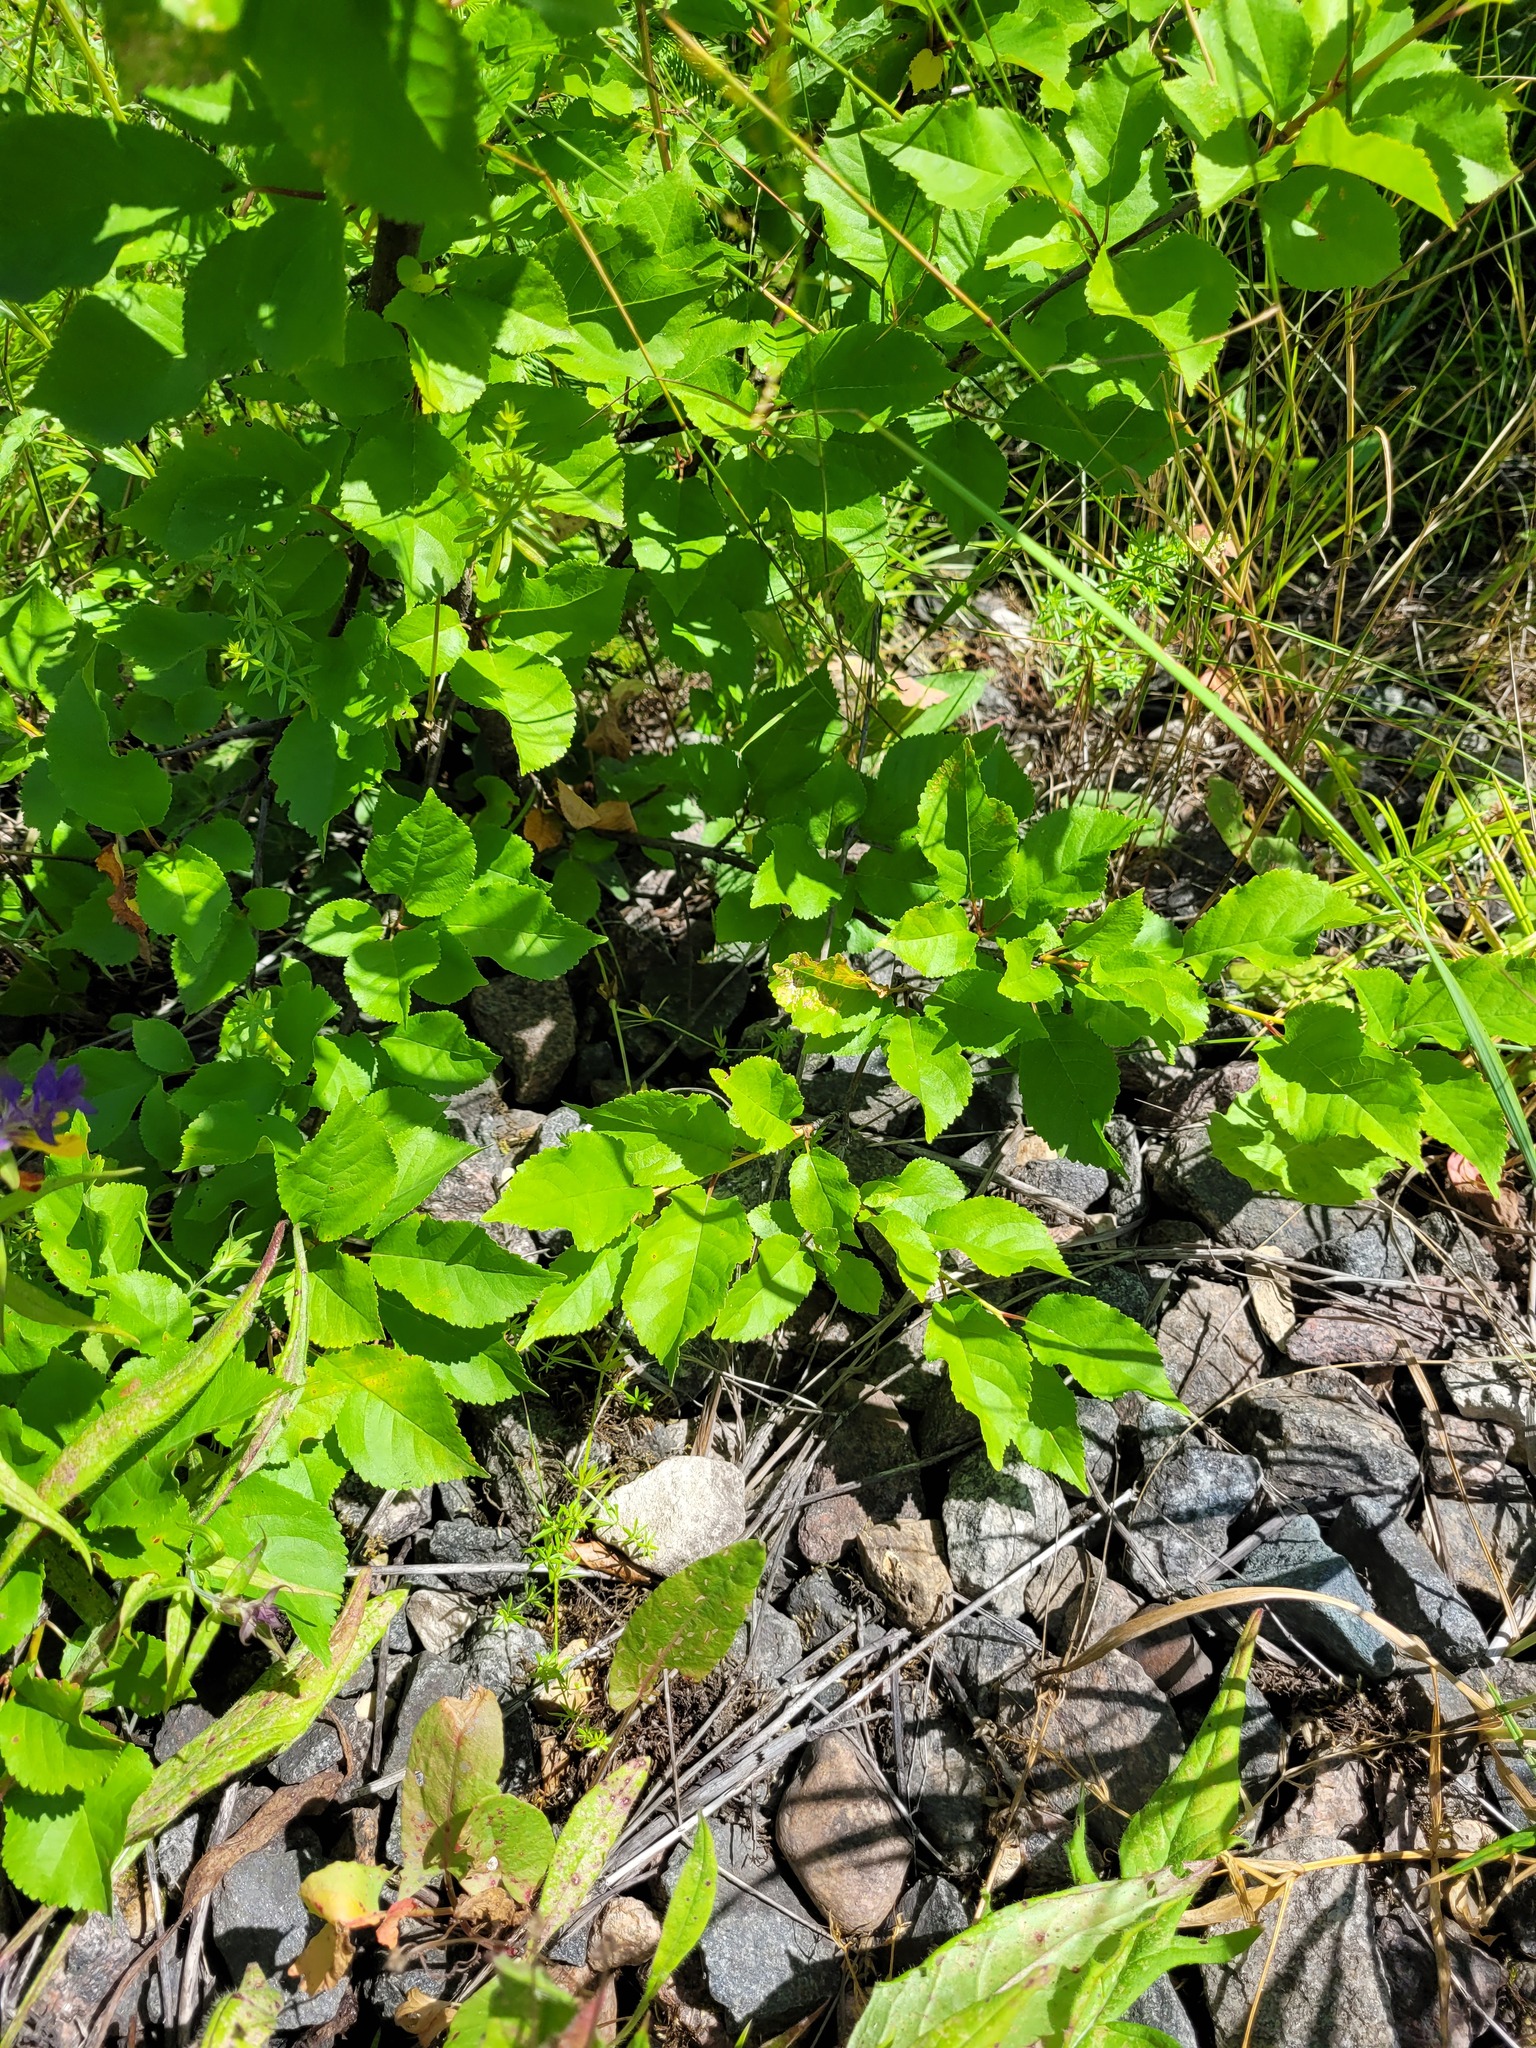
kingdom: Plantae
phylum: Tracheophyta
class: Magnoliopsida
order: Rosales
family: Rosaceae
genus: Prunus
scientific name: Prunus cerasus
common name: Morello cherry
